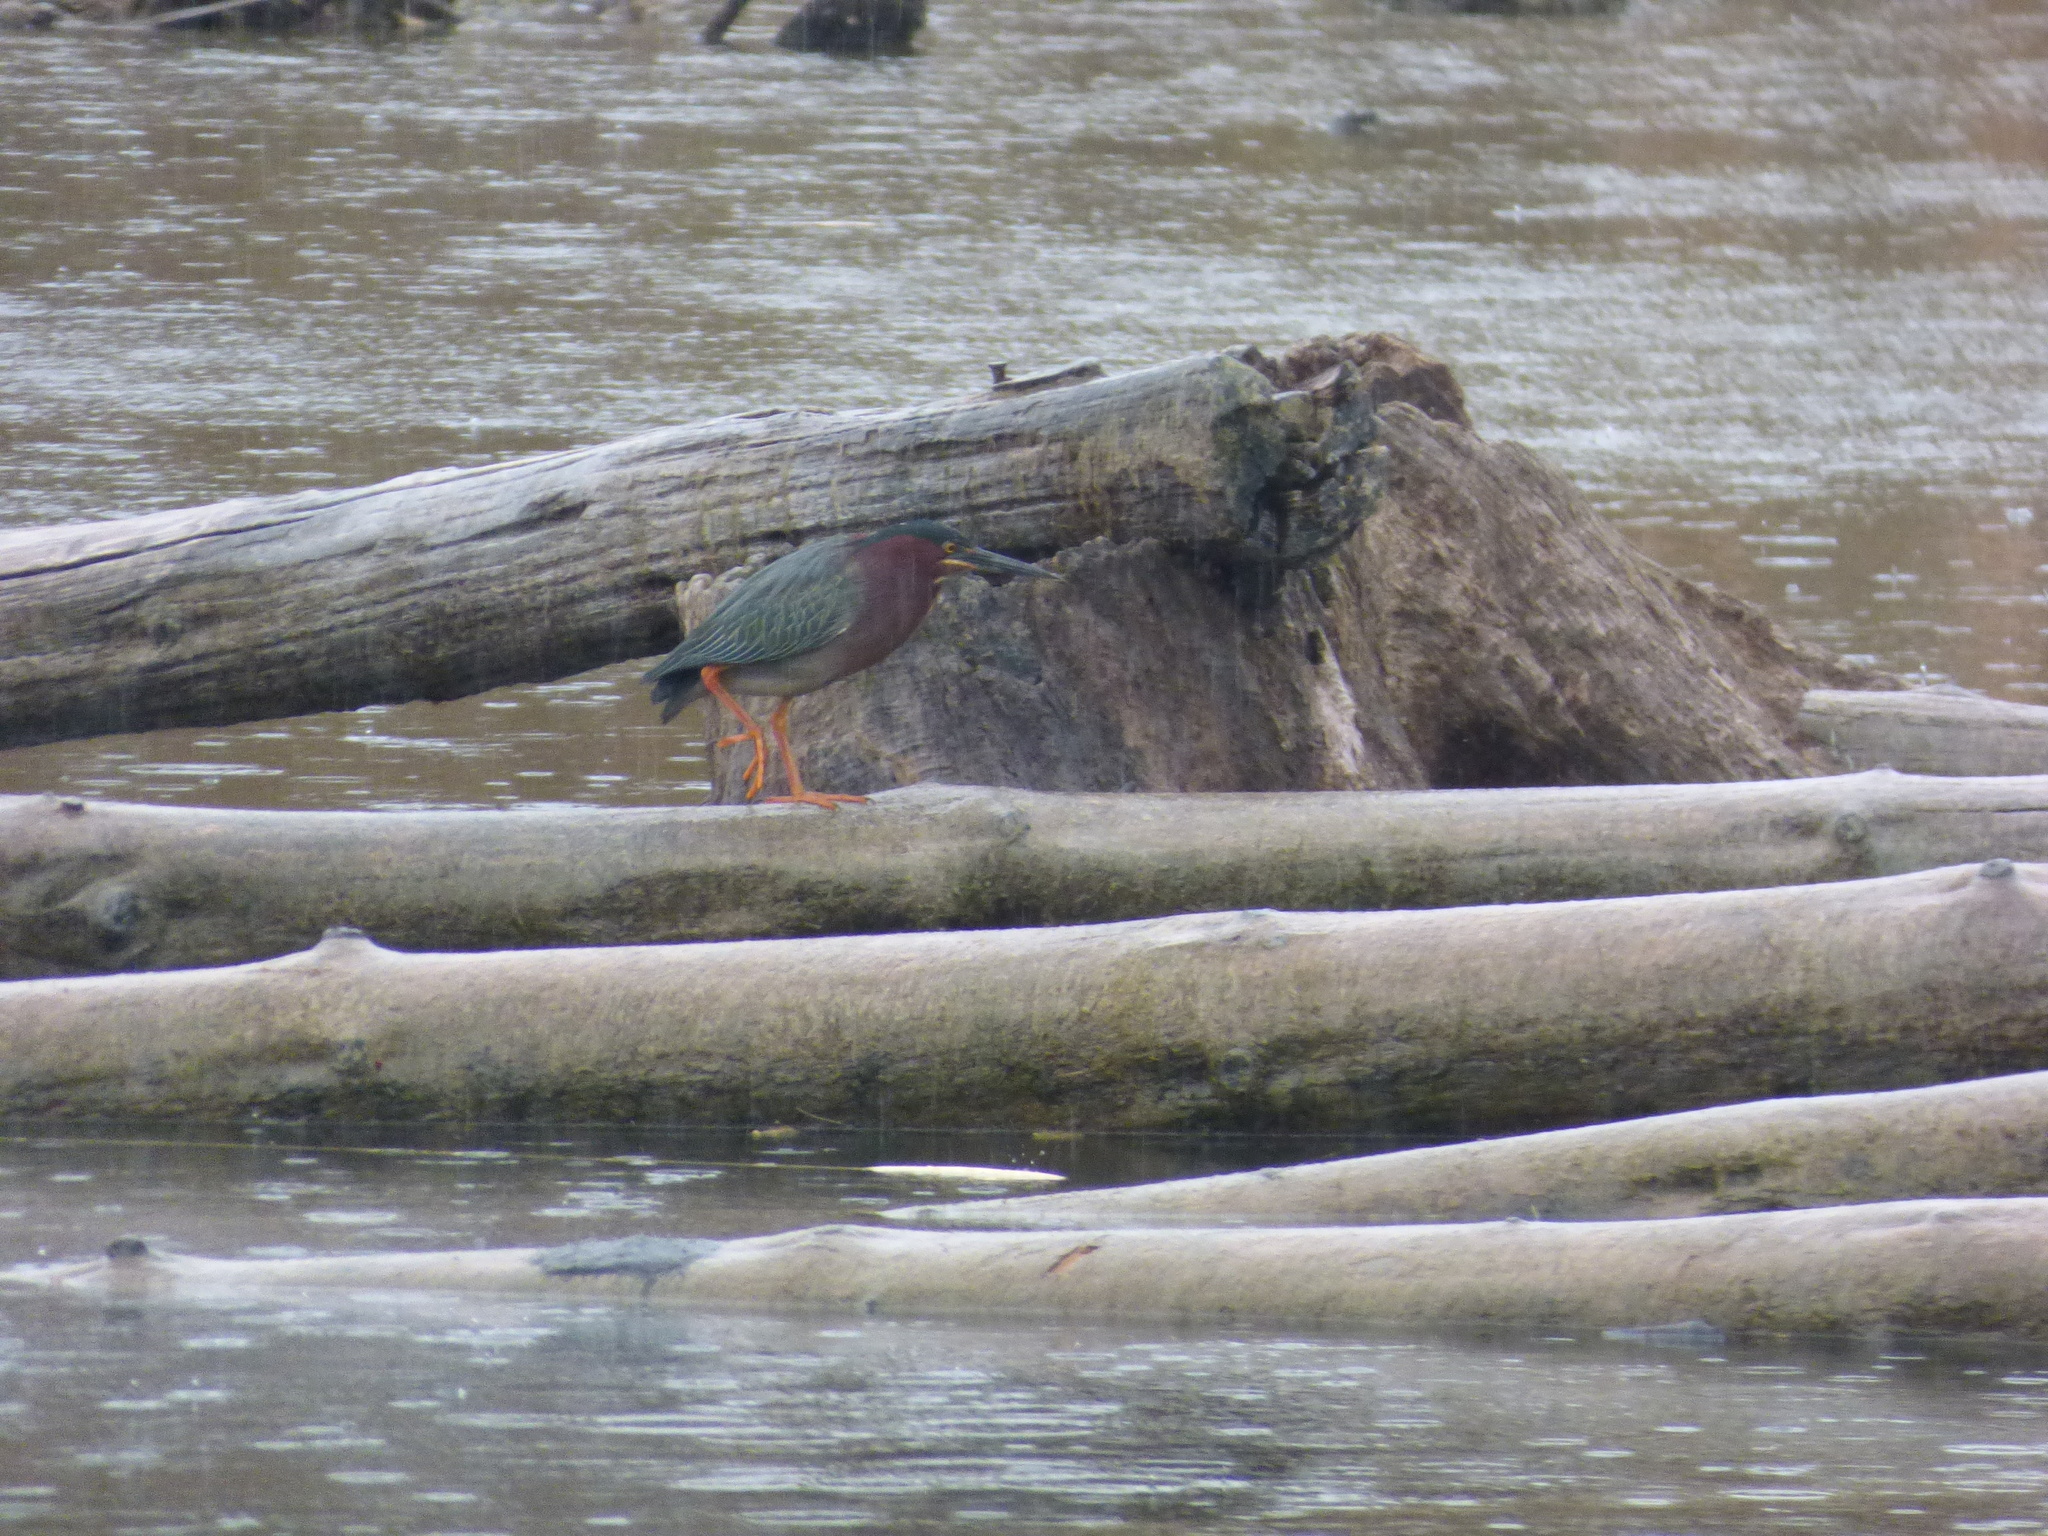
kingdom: Animalia
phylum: Chordata
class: Aves
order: Pelecaniformes
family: Ardeidae
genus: Butorides
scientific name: Butorides virescens
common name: Green heron
